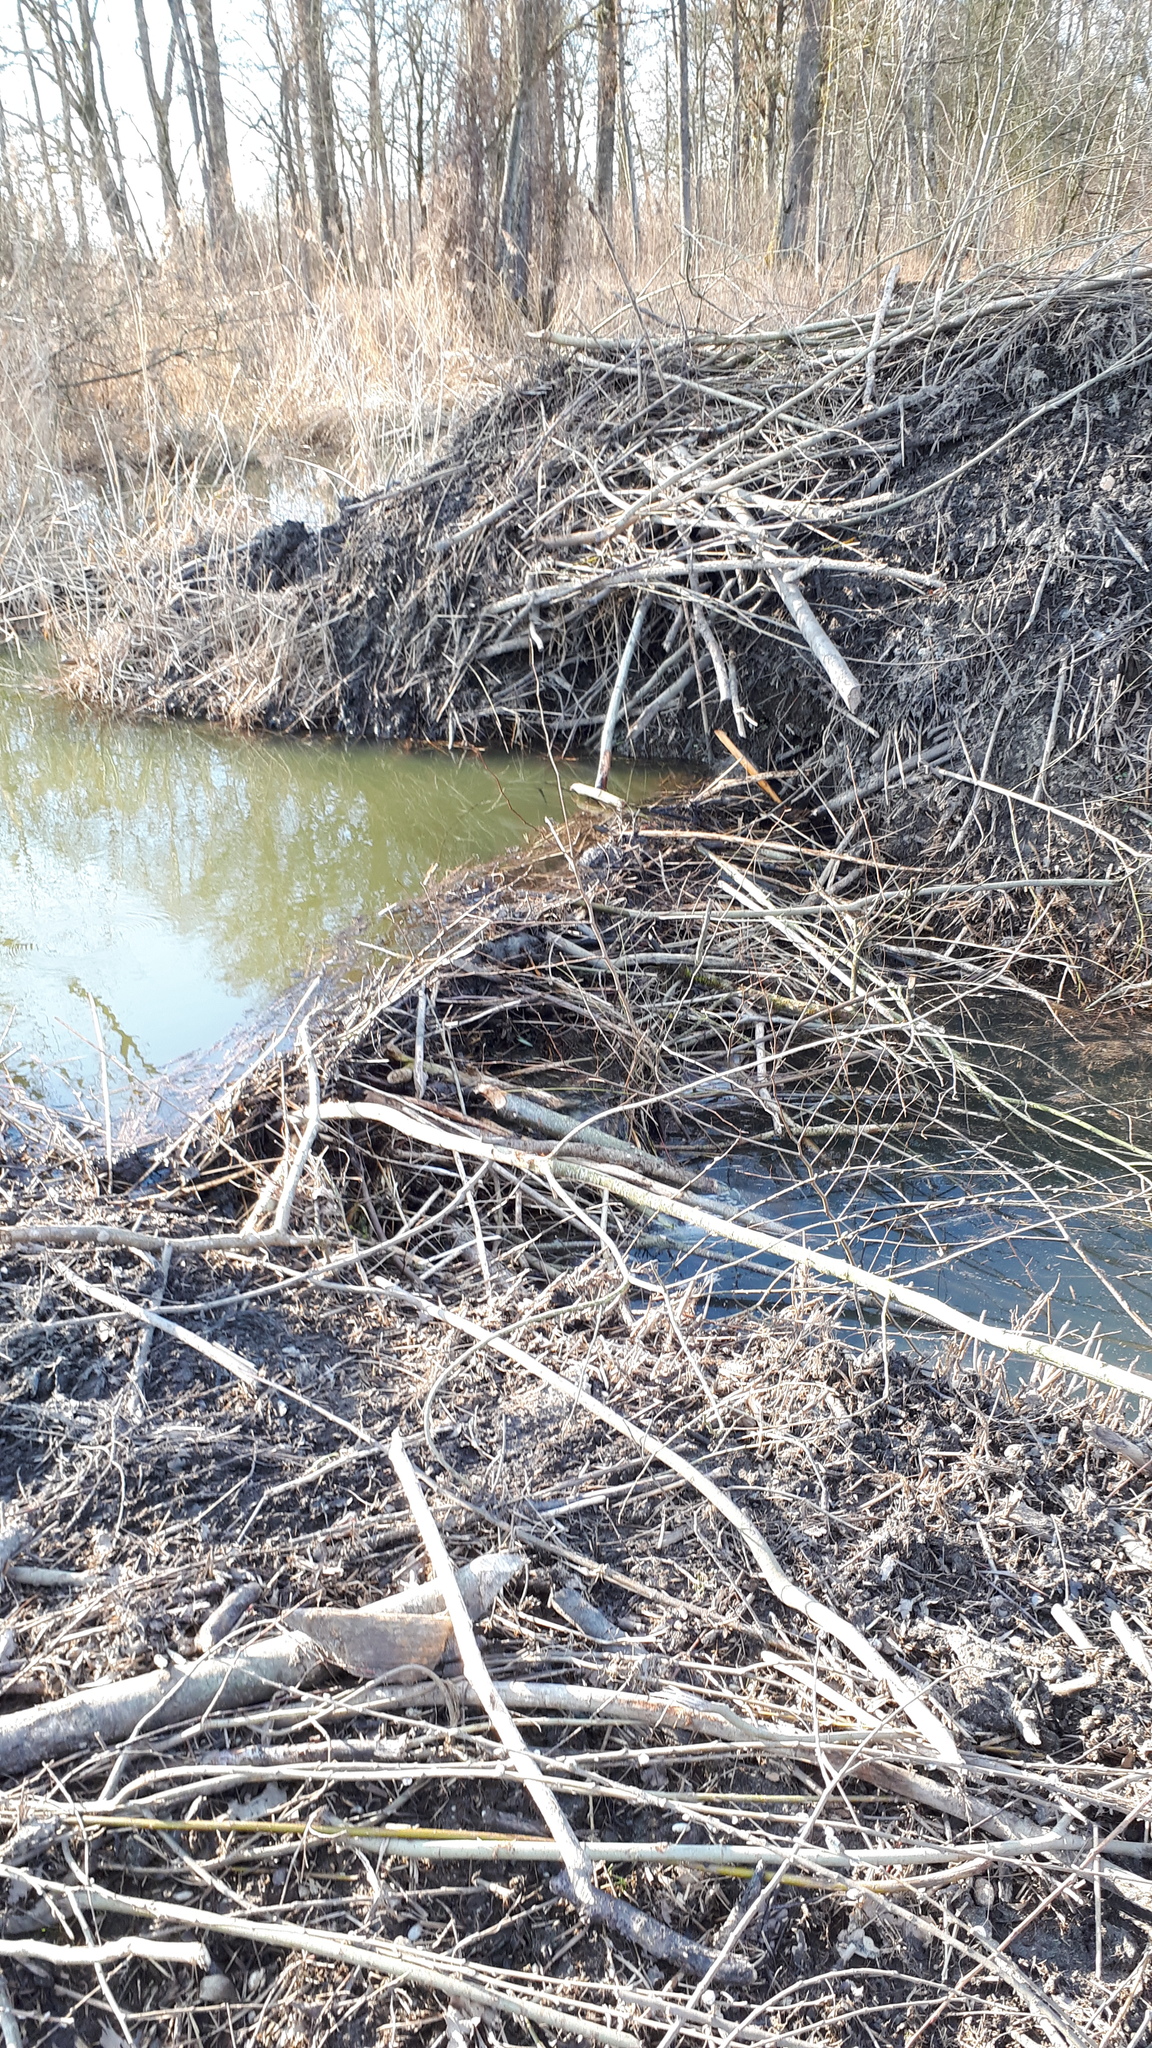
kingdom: Animalia
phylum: Chordata
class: Mammalia
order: Rodentia
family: Castoridae
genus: Castor
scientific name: Castor fiber
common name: Eurasian beaver
